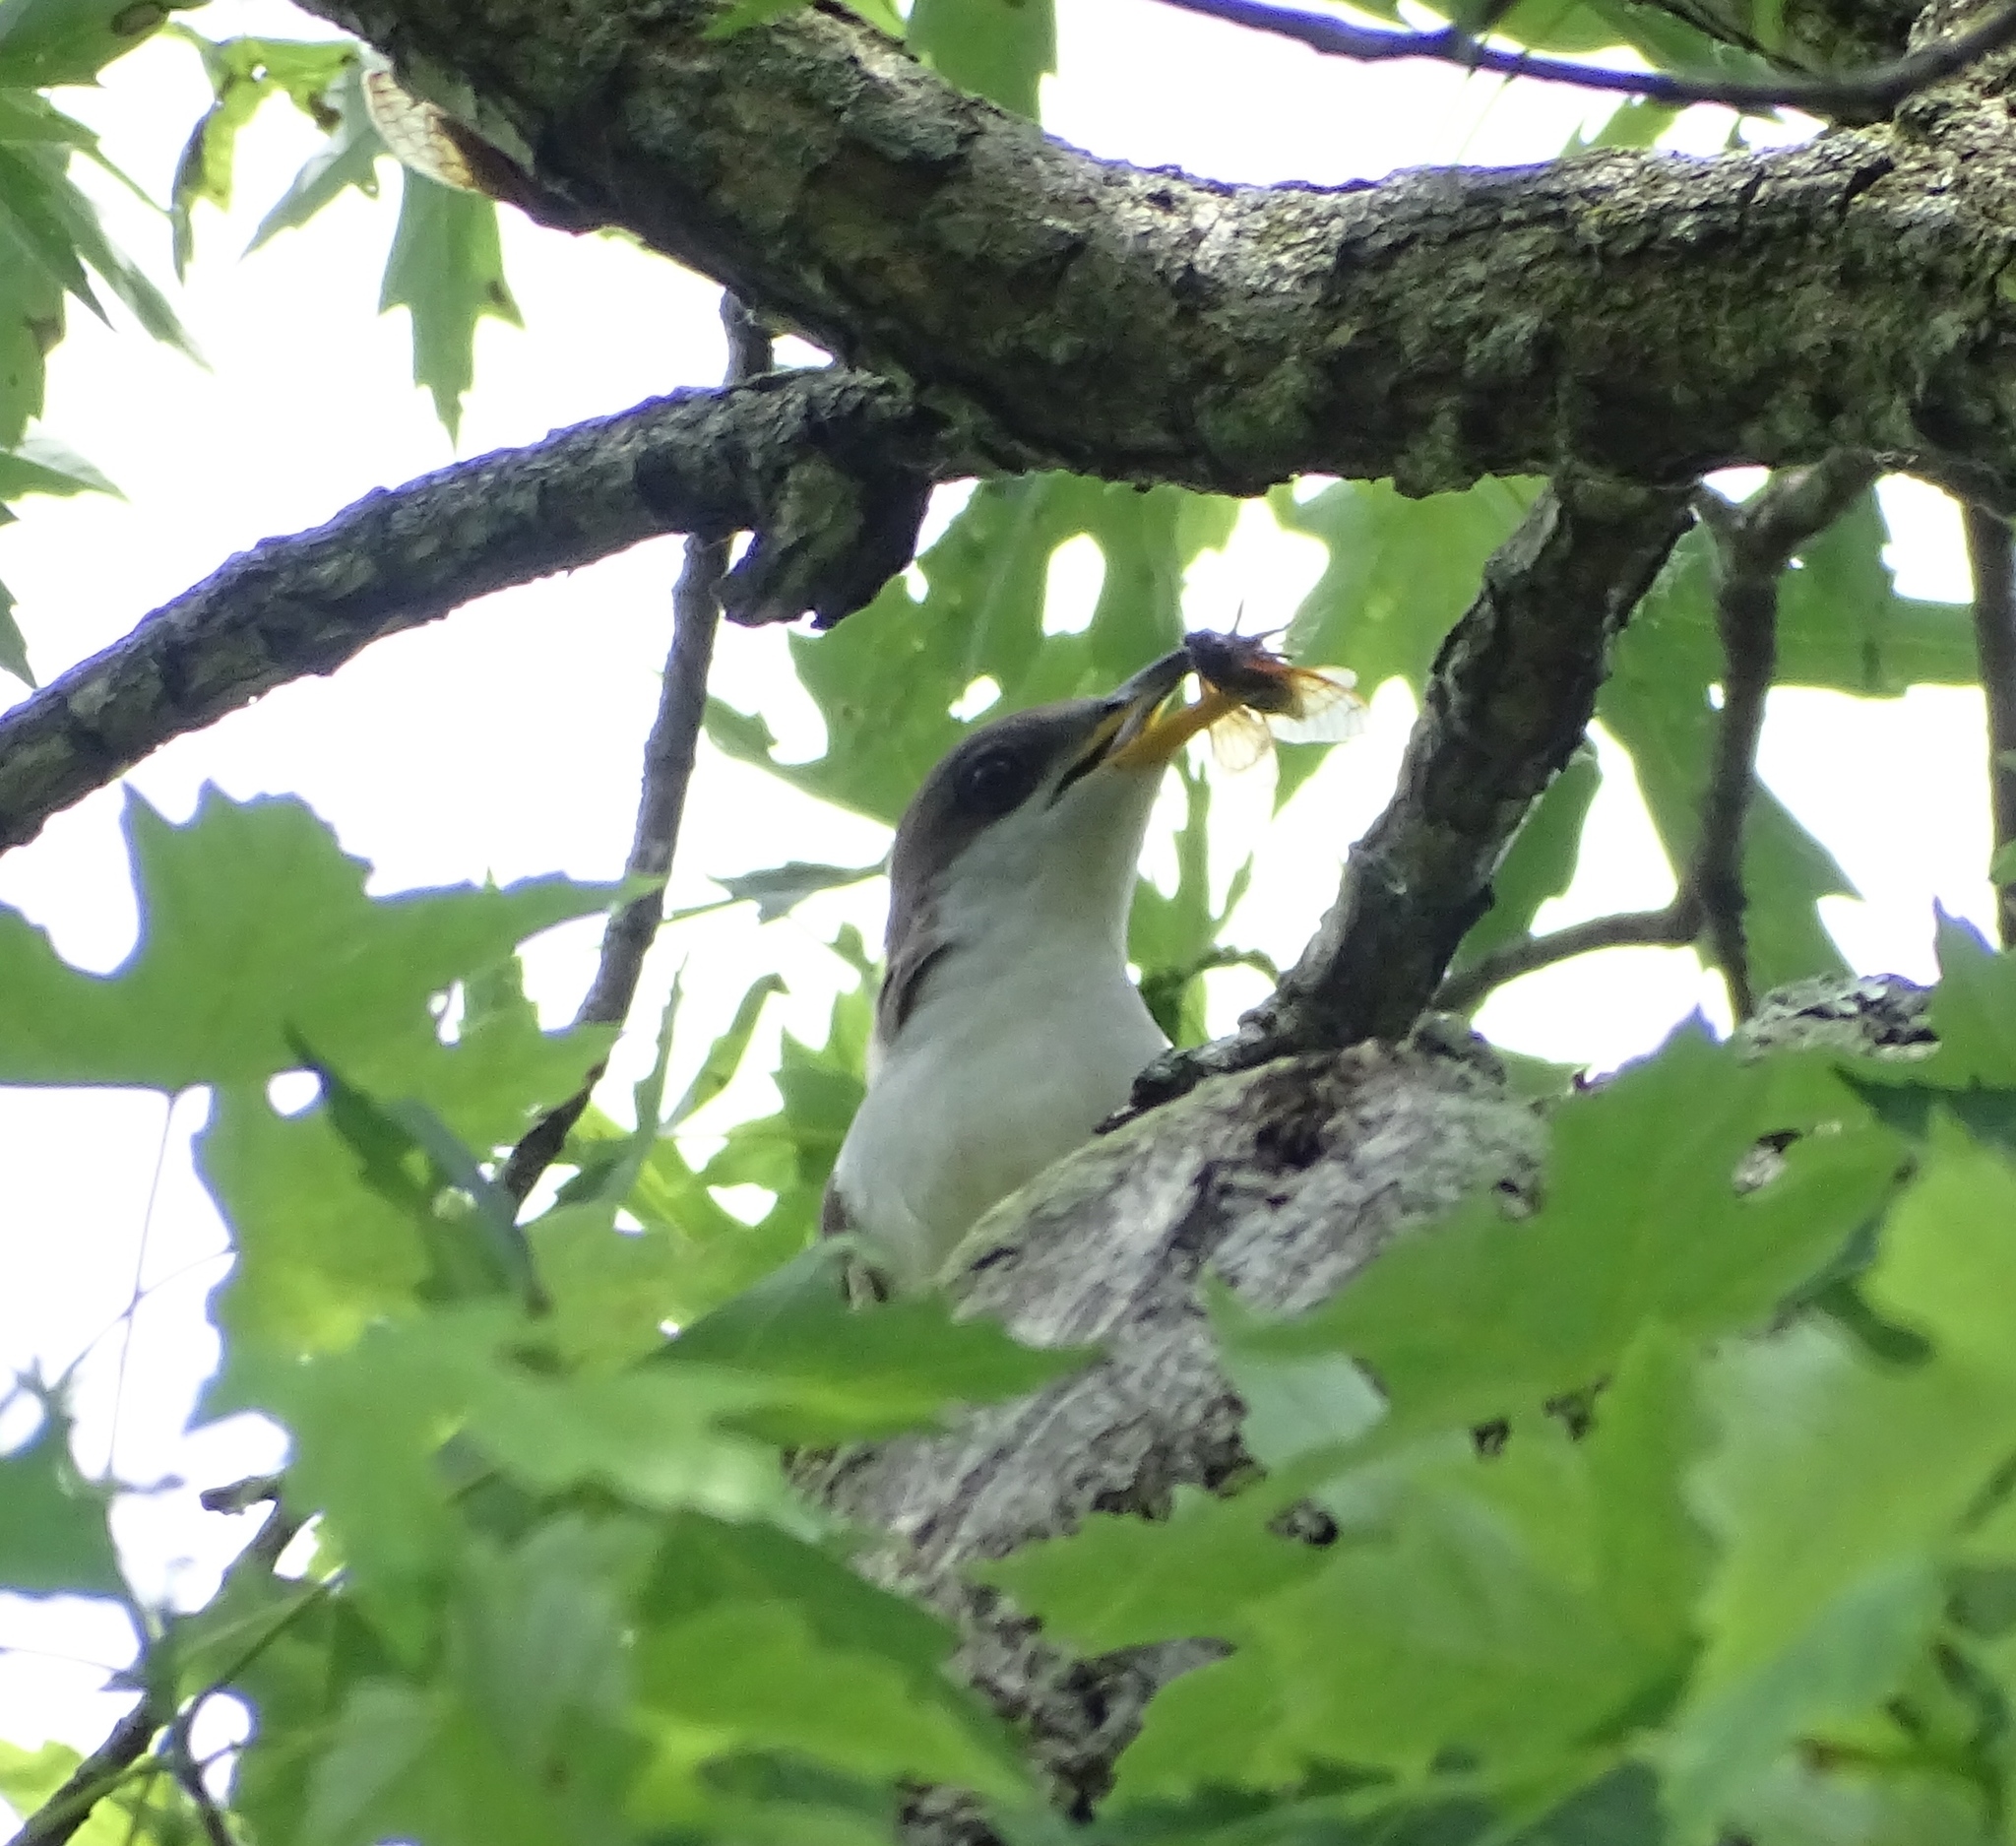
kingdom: Animalia
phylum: Chordata
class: Aves
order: Cuculiformes
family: Cuculidae
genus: Coccyzus
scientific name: Coccyzus americanus
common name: Yellow-billed cuckoo
